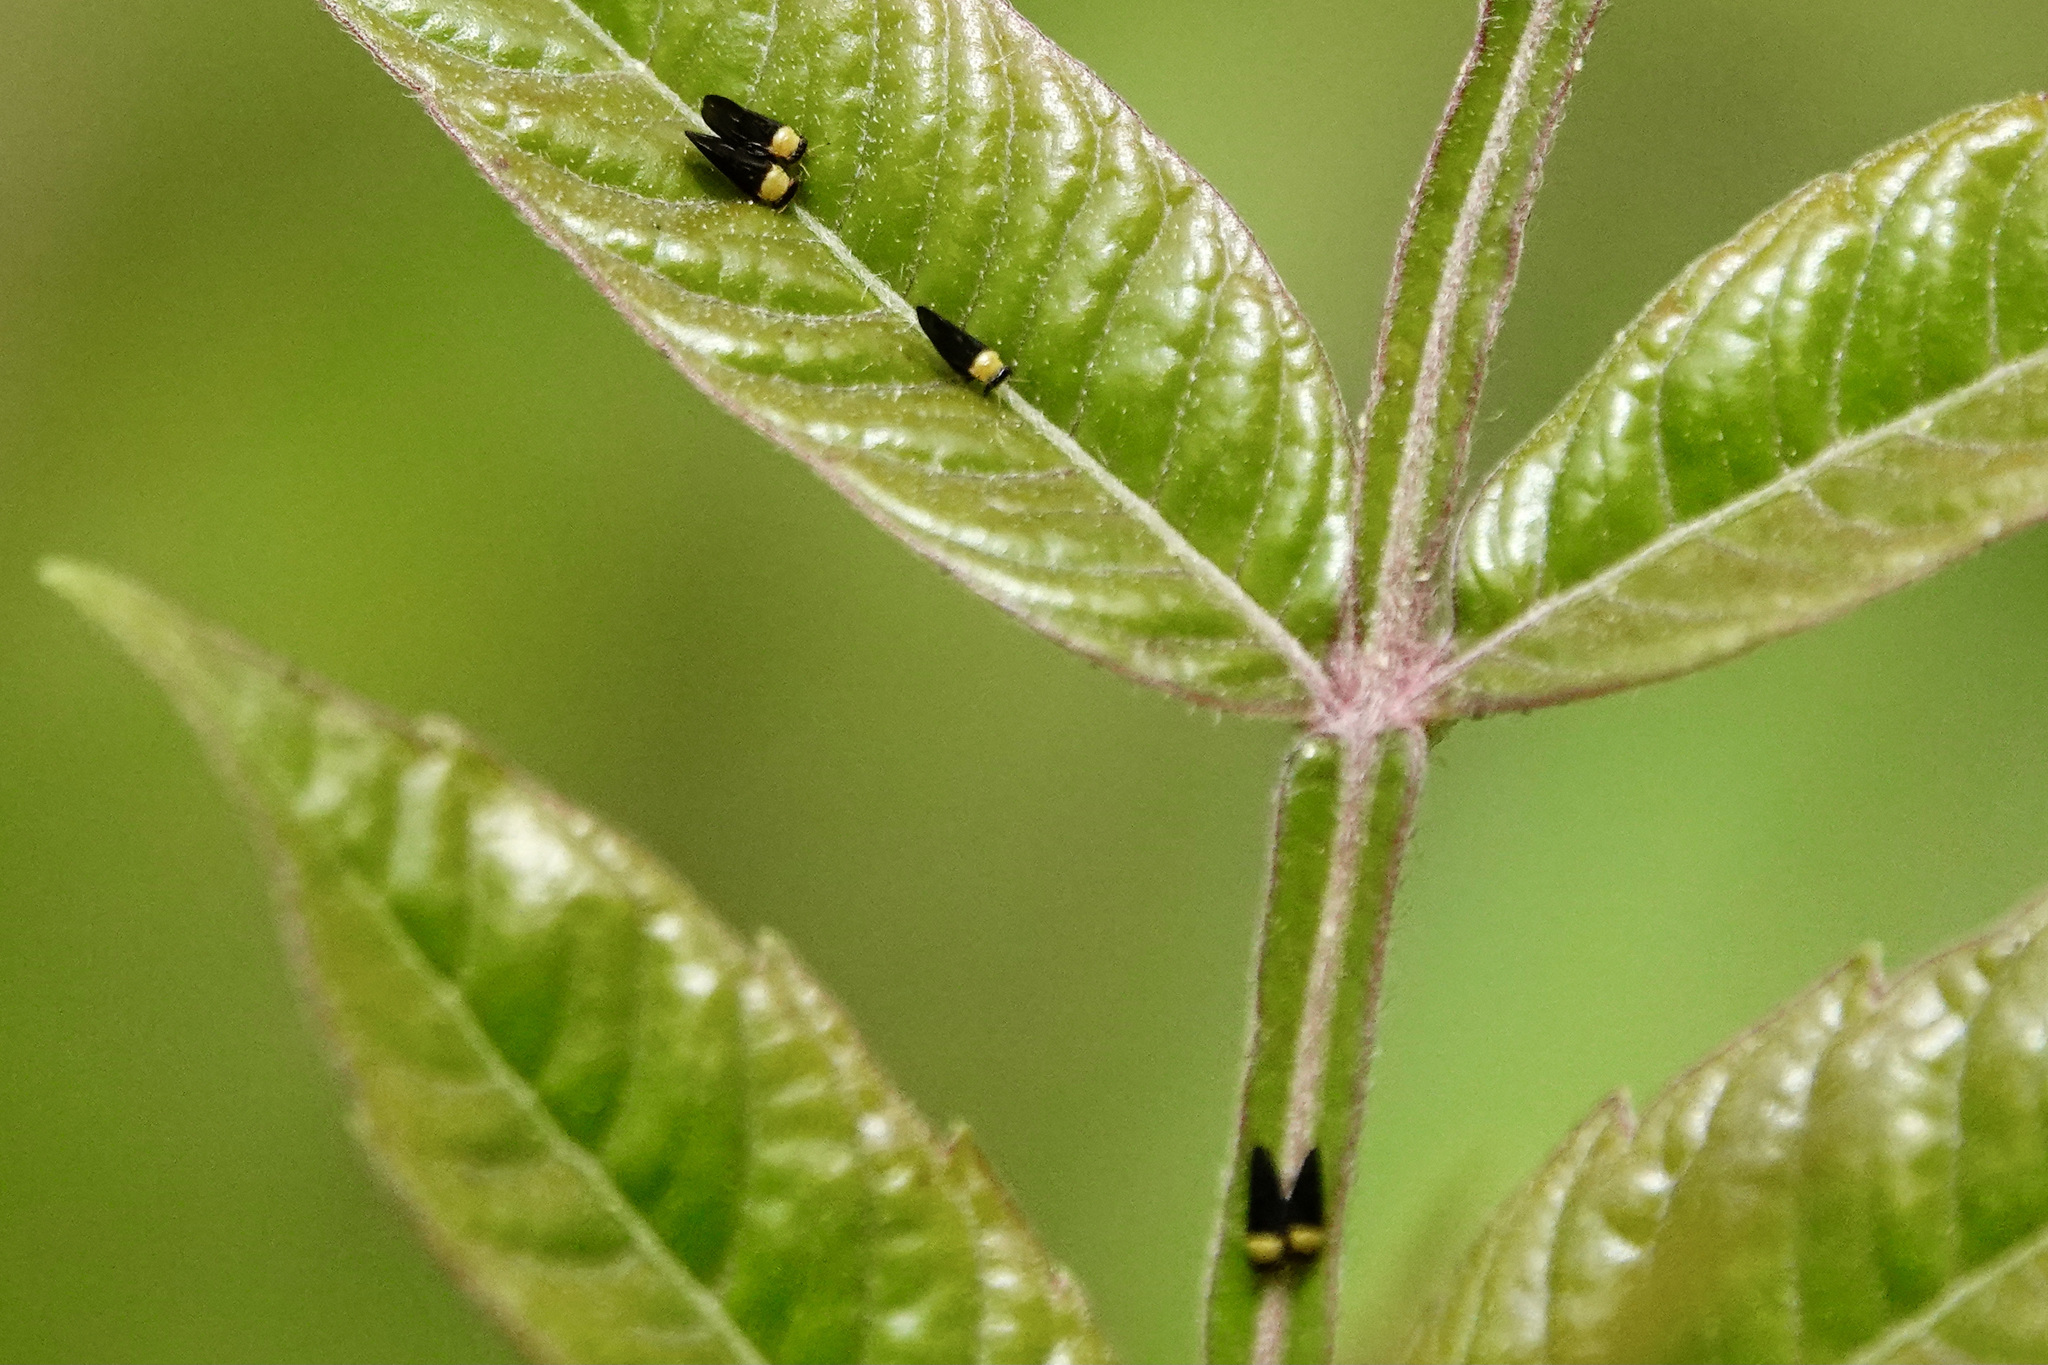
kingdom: Animalia
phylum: Arthropoda
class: Insecta
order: Hemiptera
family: Calophyidae
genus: Calophya
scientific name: Calophya nigripennis
